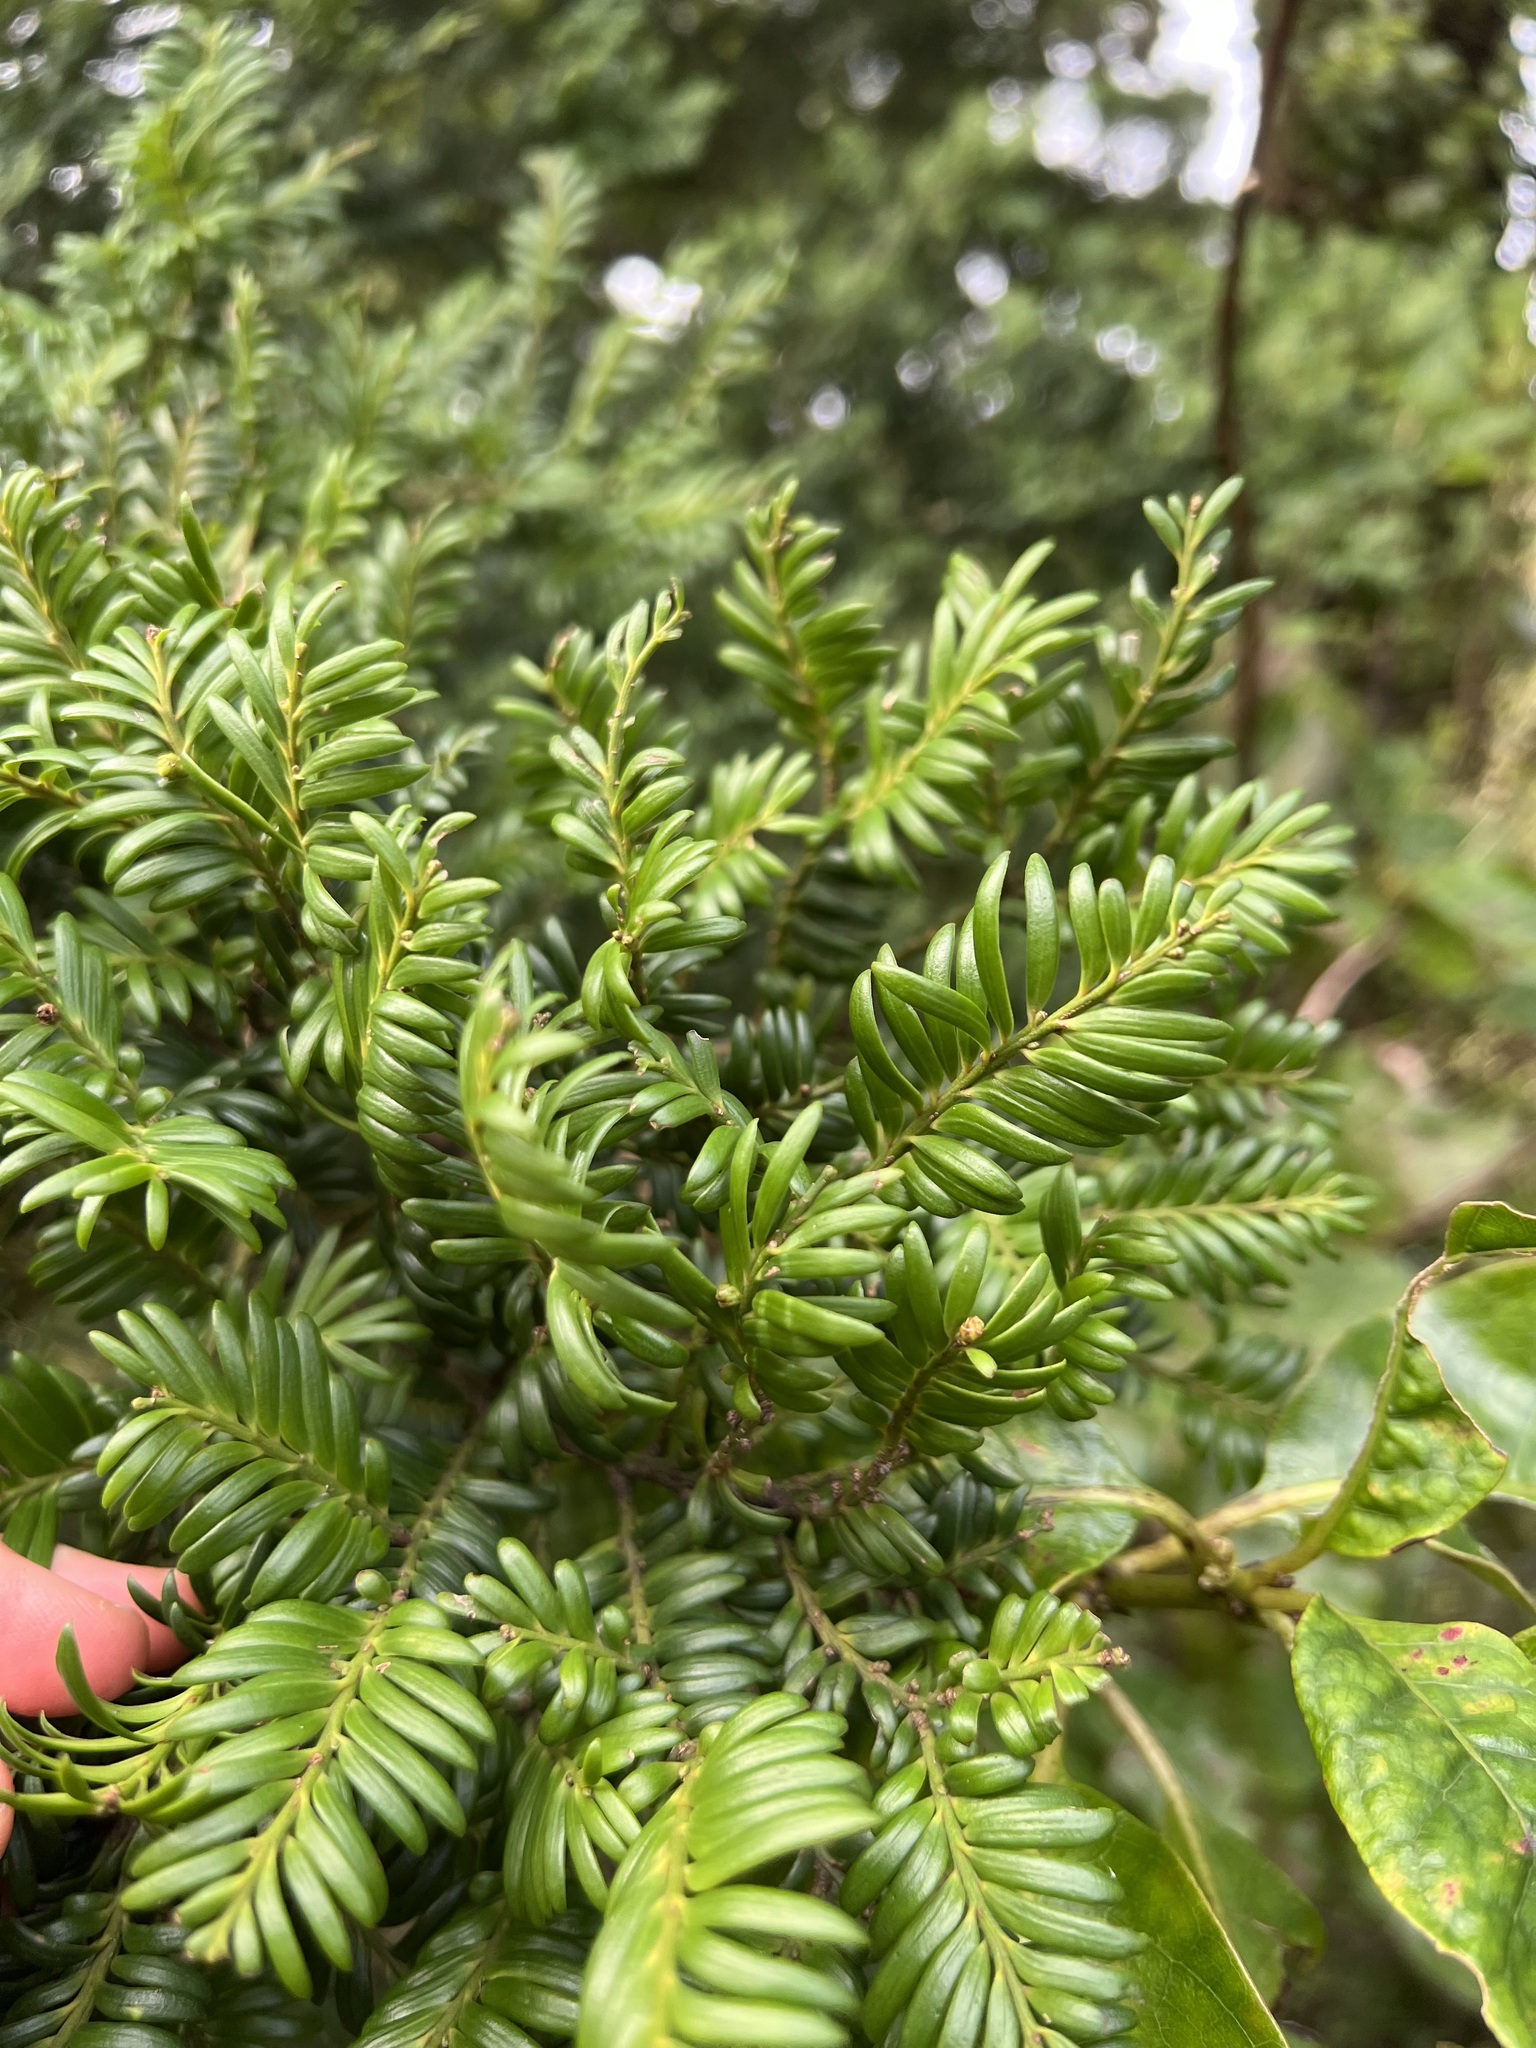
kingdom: Plantae
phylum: Tracheophyta
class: Pinopsida
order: Pinales
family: Podocarpaceae
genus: Prumnopitys
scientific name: Prumnopitys ferruginea
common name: Brown pine
